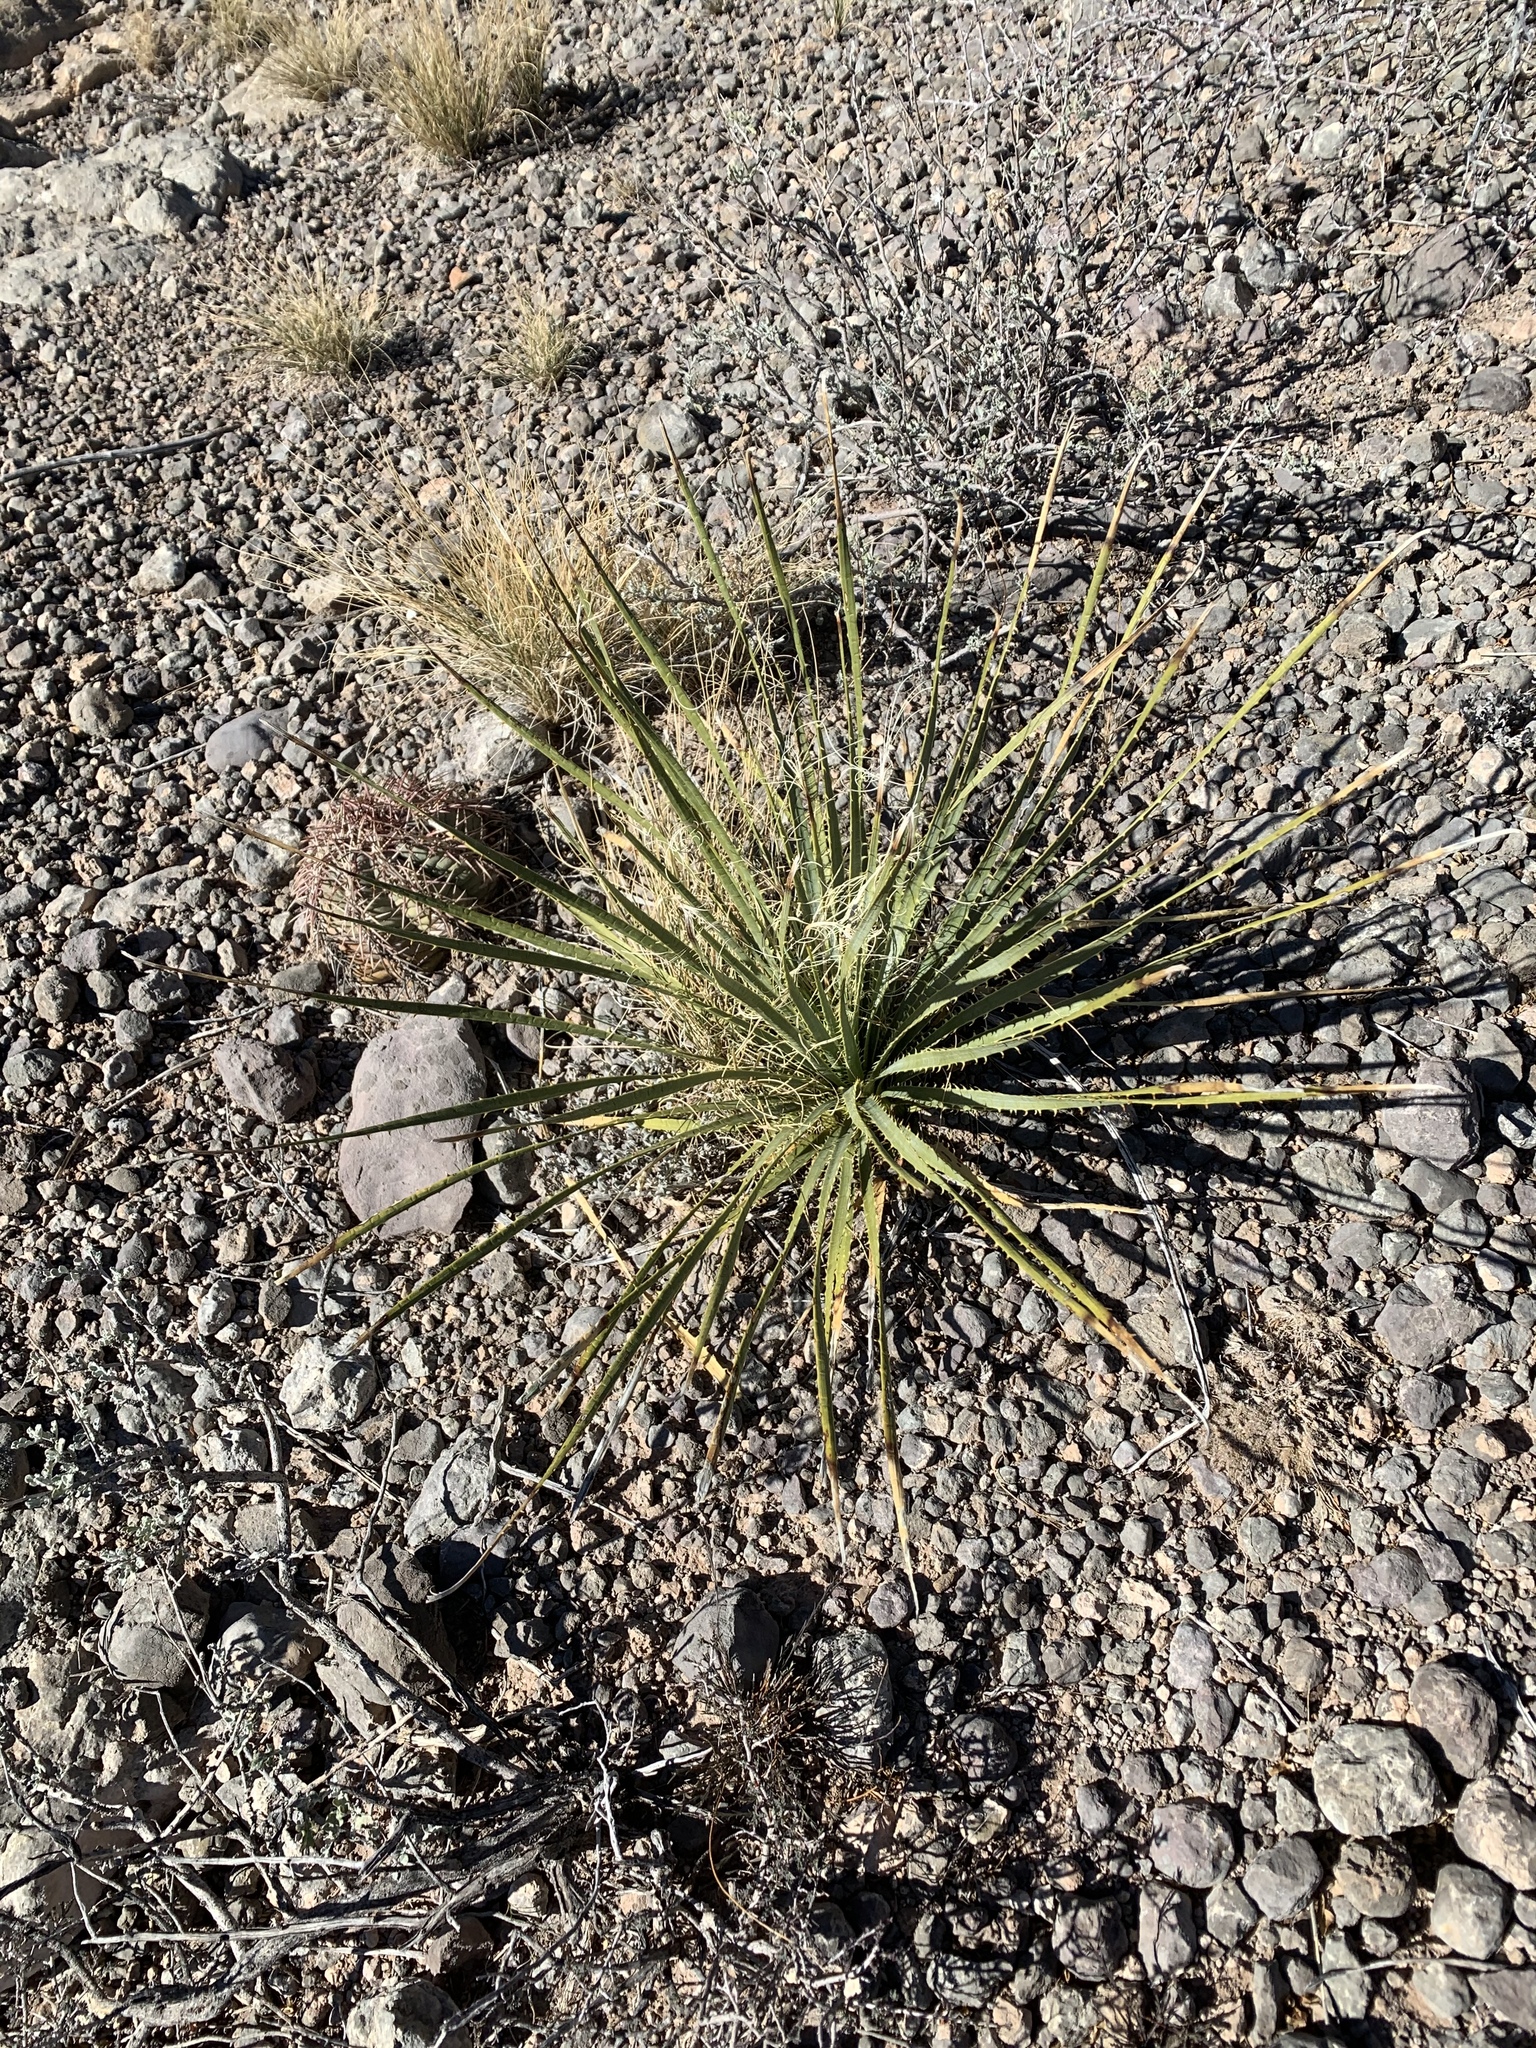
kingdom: Plantae
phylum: Tracheophyta
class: Liliopsida
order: Asparagales
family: Asparagaceae
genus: Dasylirion
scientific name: Dasylirion wheeleri
